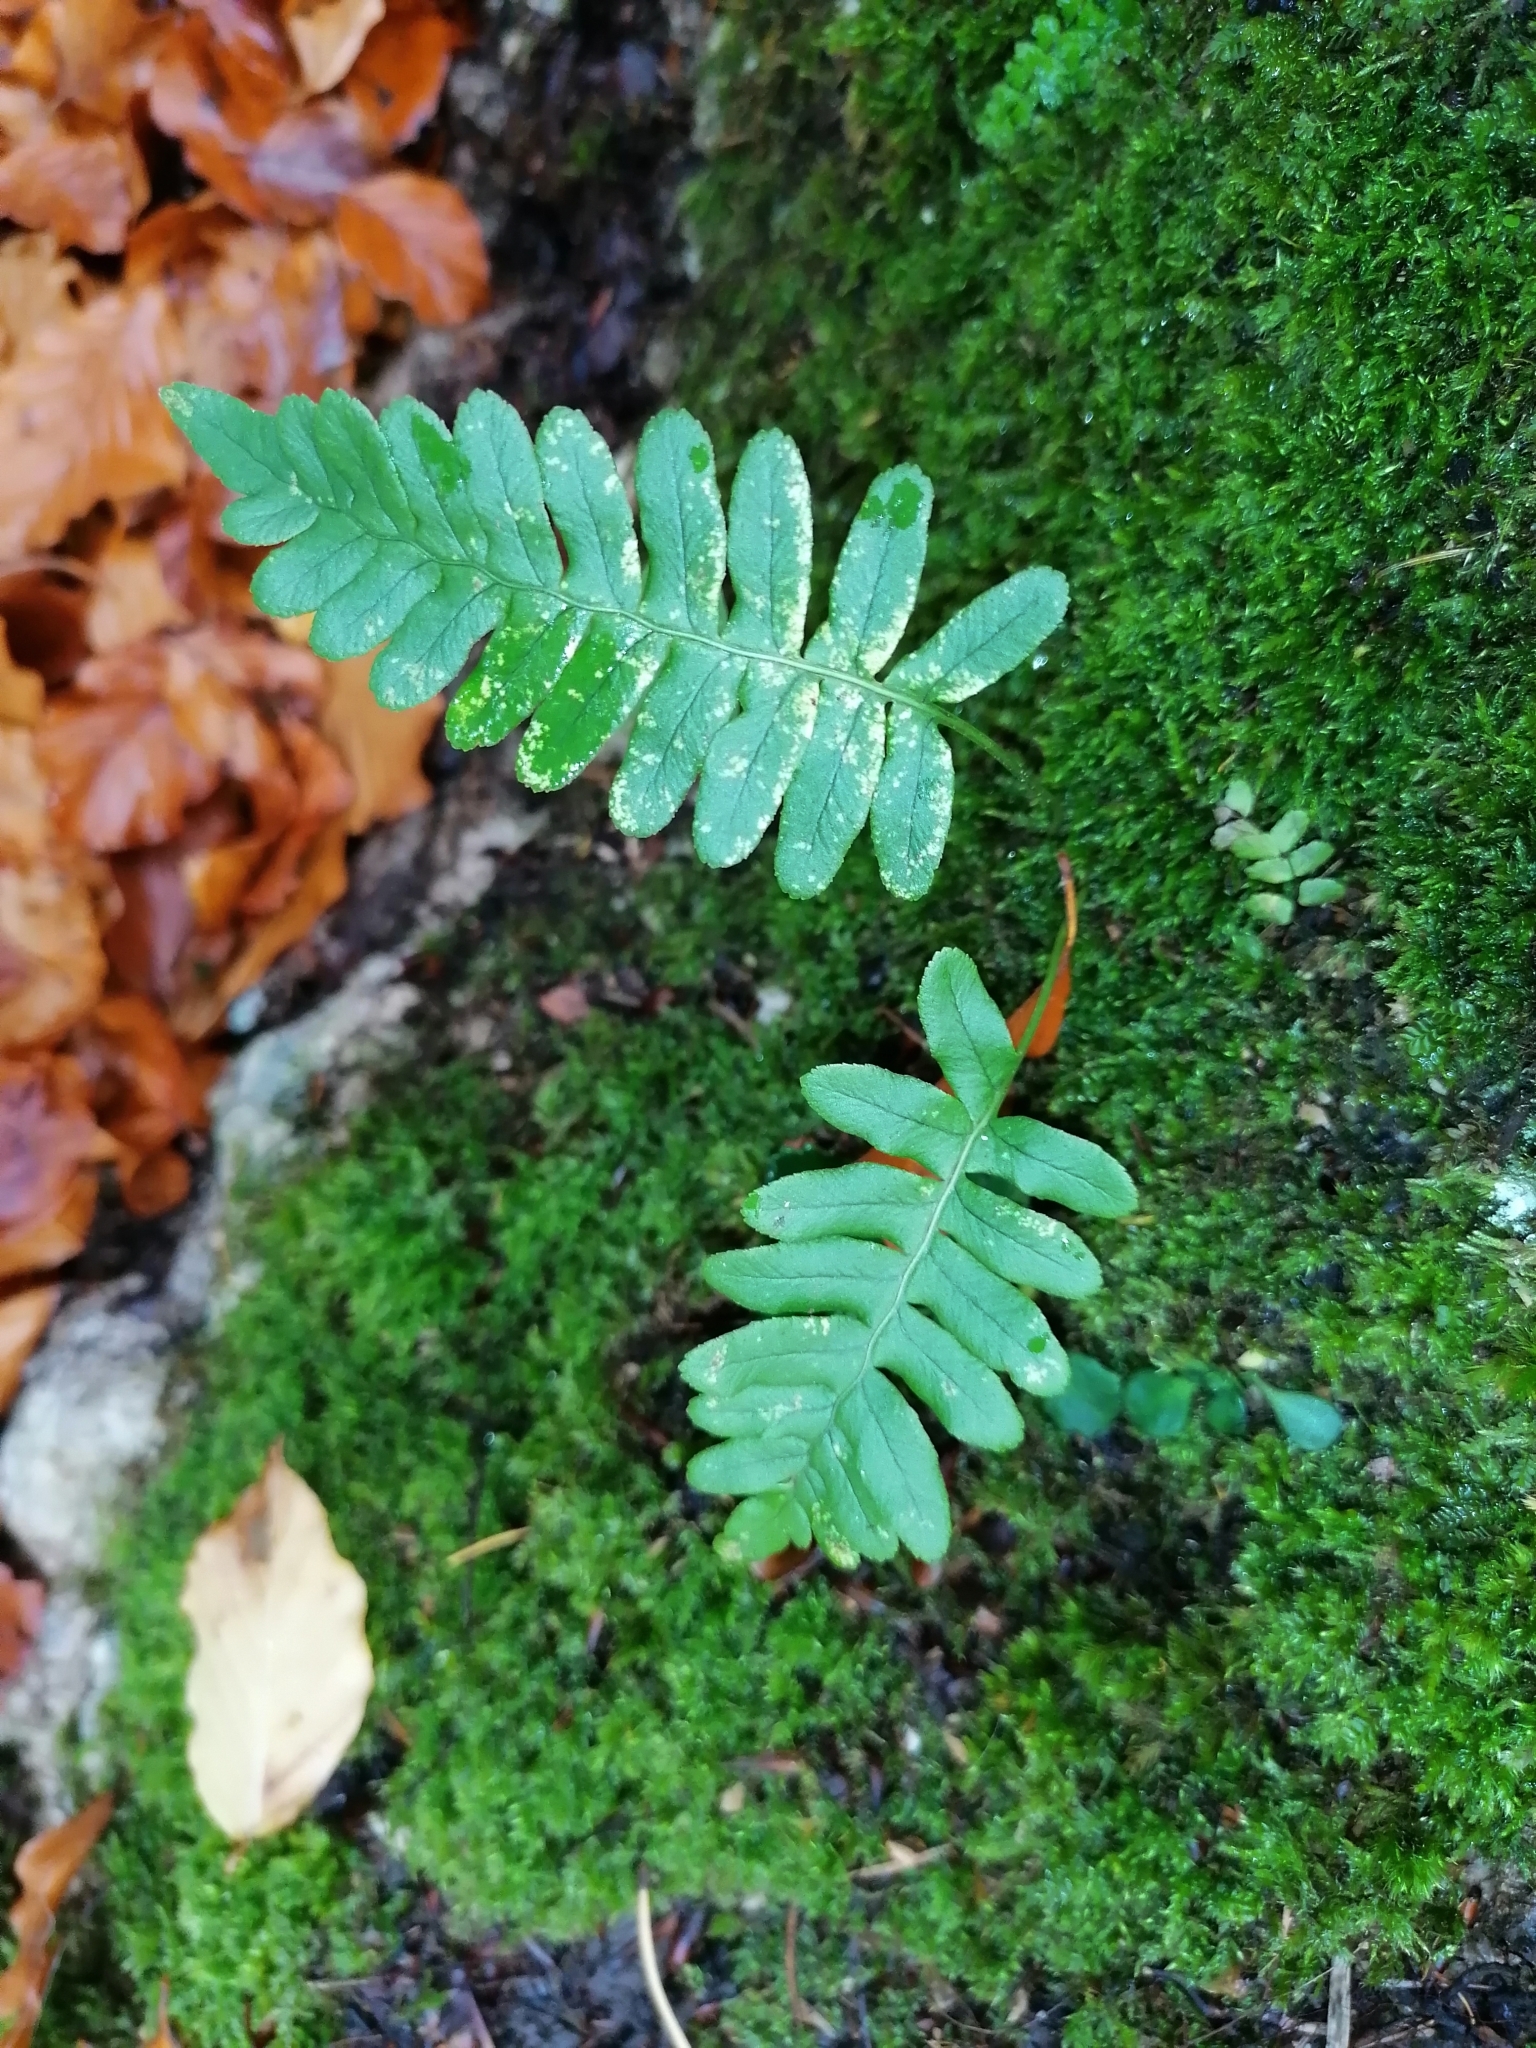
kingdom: Plantae
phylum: Tracheophyta
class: Polypodiopsida
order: Polypodiales
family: Polypodiaceae
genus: Polypodium
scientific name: Polypodium vulgare
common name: Common polypody
